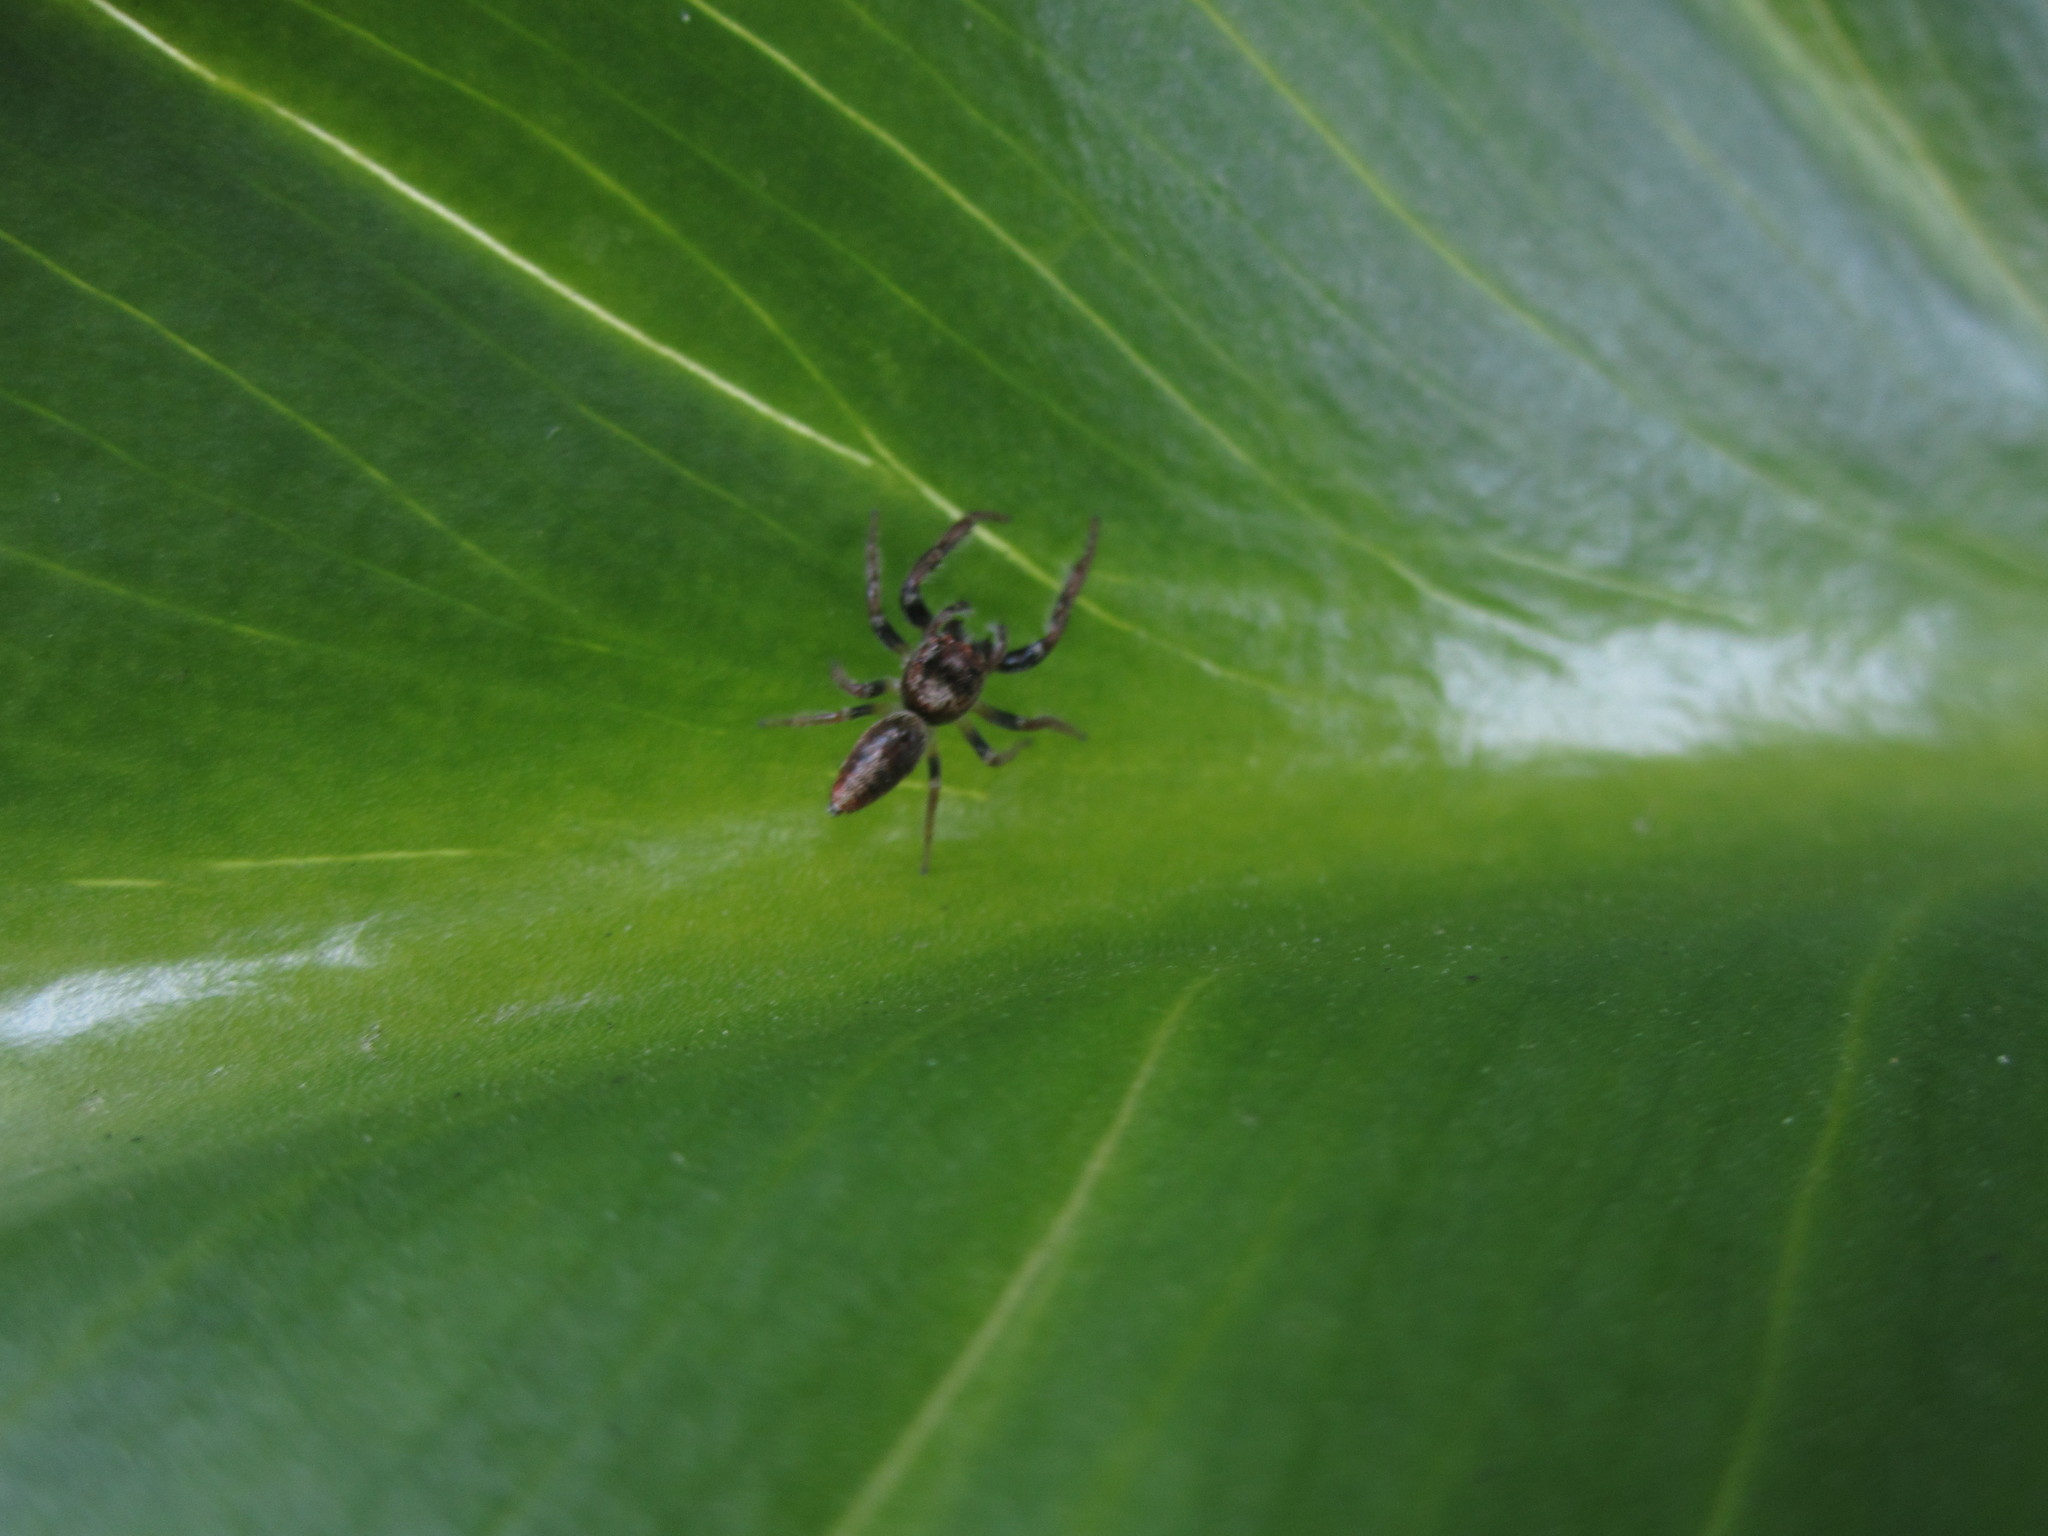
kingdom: Animalia
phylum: Arthropoda
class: Arachnida
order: Araneae
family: Salticidae
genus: Opisthoncus
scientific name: Opisthoncus polyphemus
